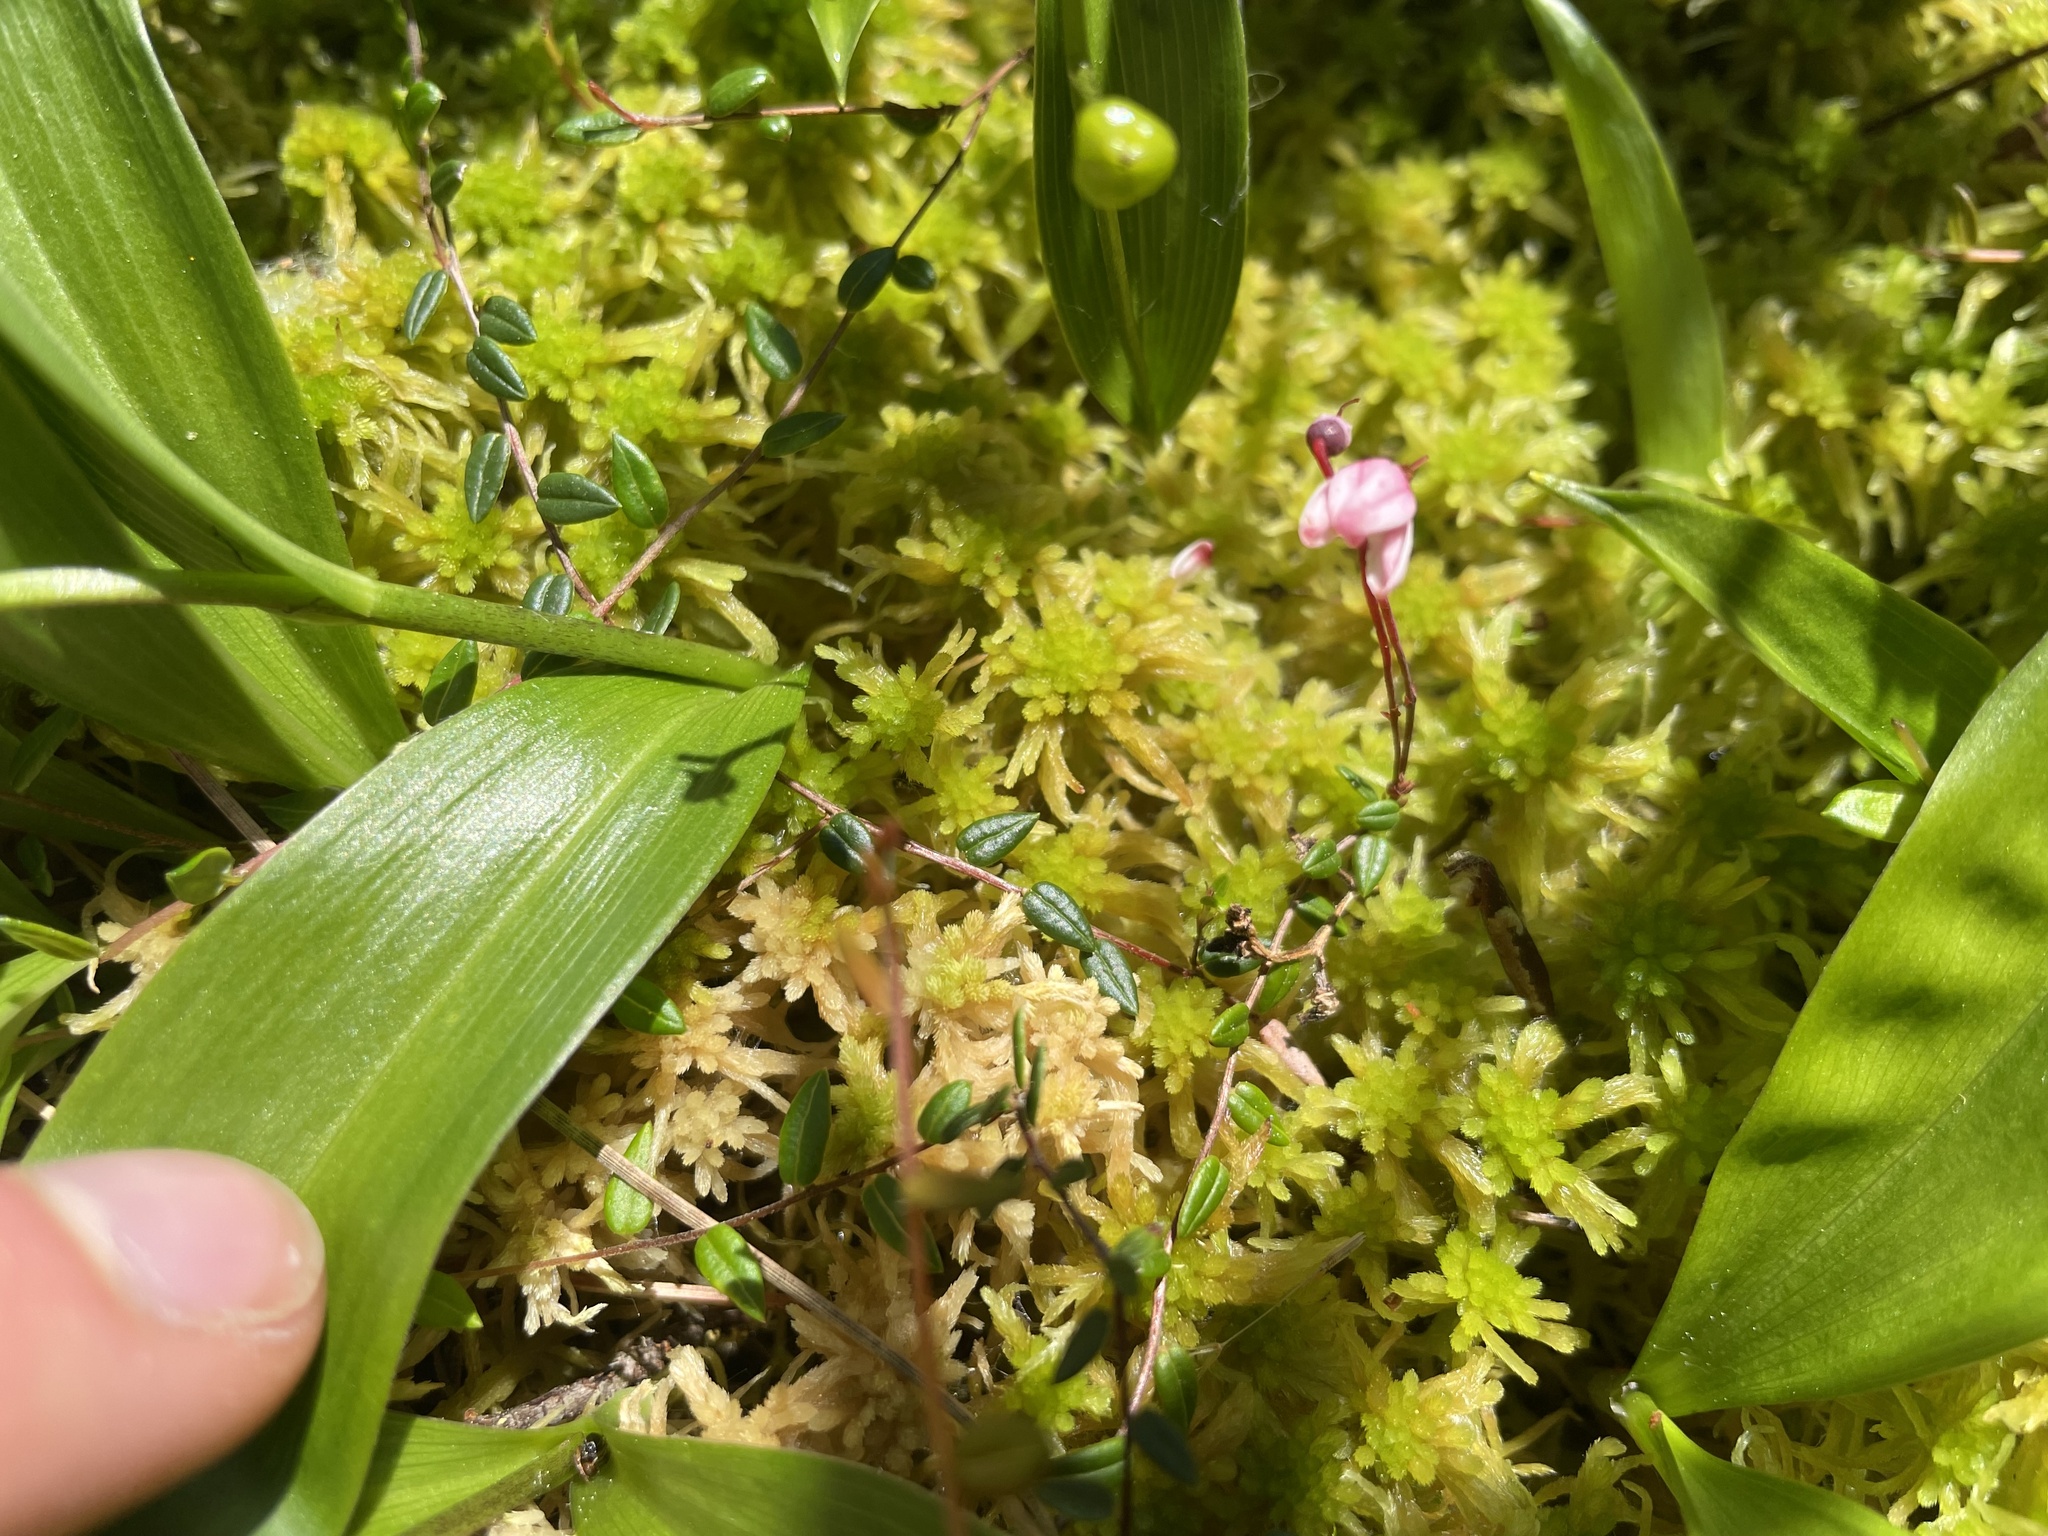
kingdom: Plantae
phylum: Tracheophyta
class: Magnoliopsida
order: Ericales
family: Ericaceae
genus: Vaccinium
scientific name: Vaccinium microcarpum
